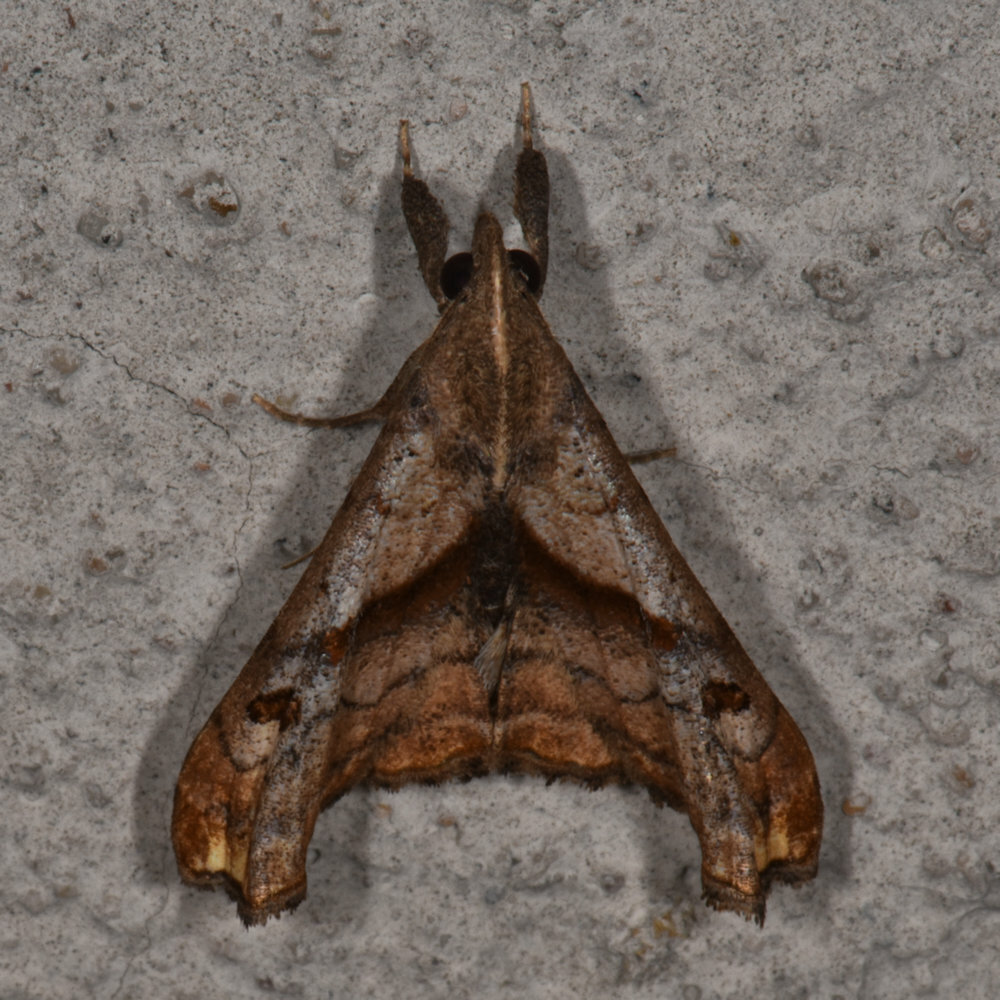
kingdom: Animalia
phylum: Arthropoda
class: Insecta
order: Lepidoptera
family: Erebidae
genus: Palthis
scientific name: Palthis angulalis
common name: Dark-spotted palthis moth
